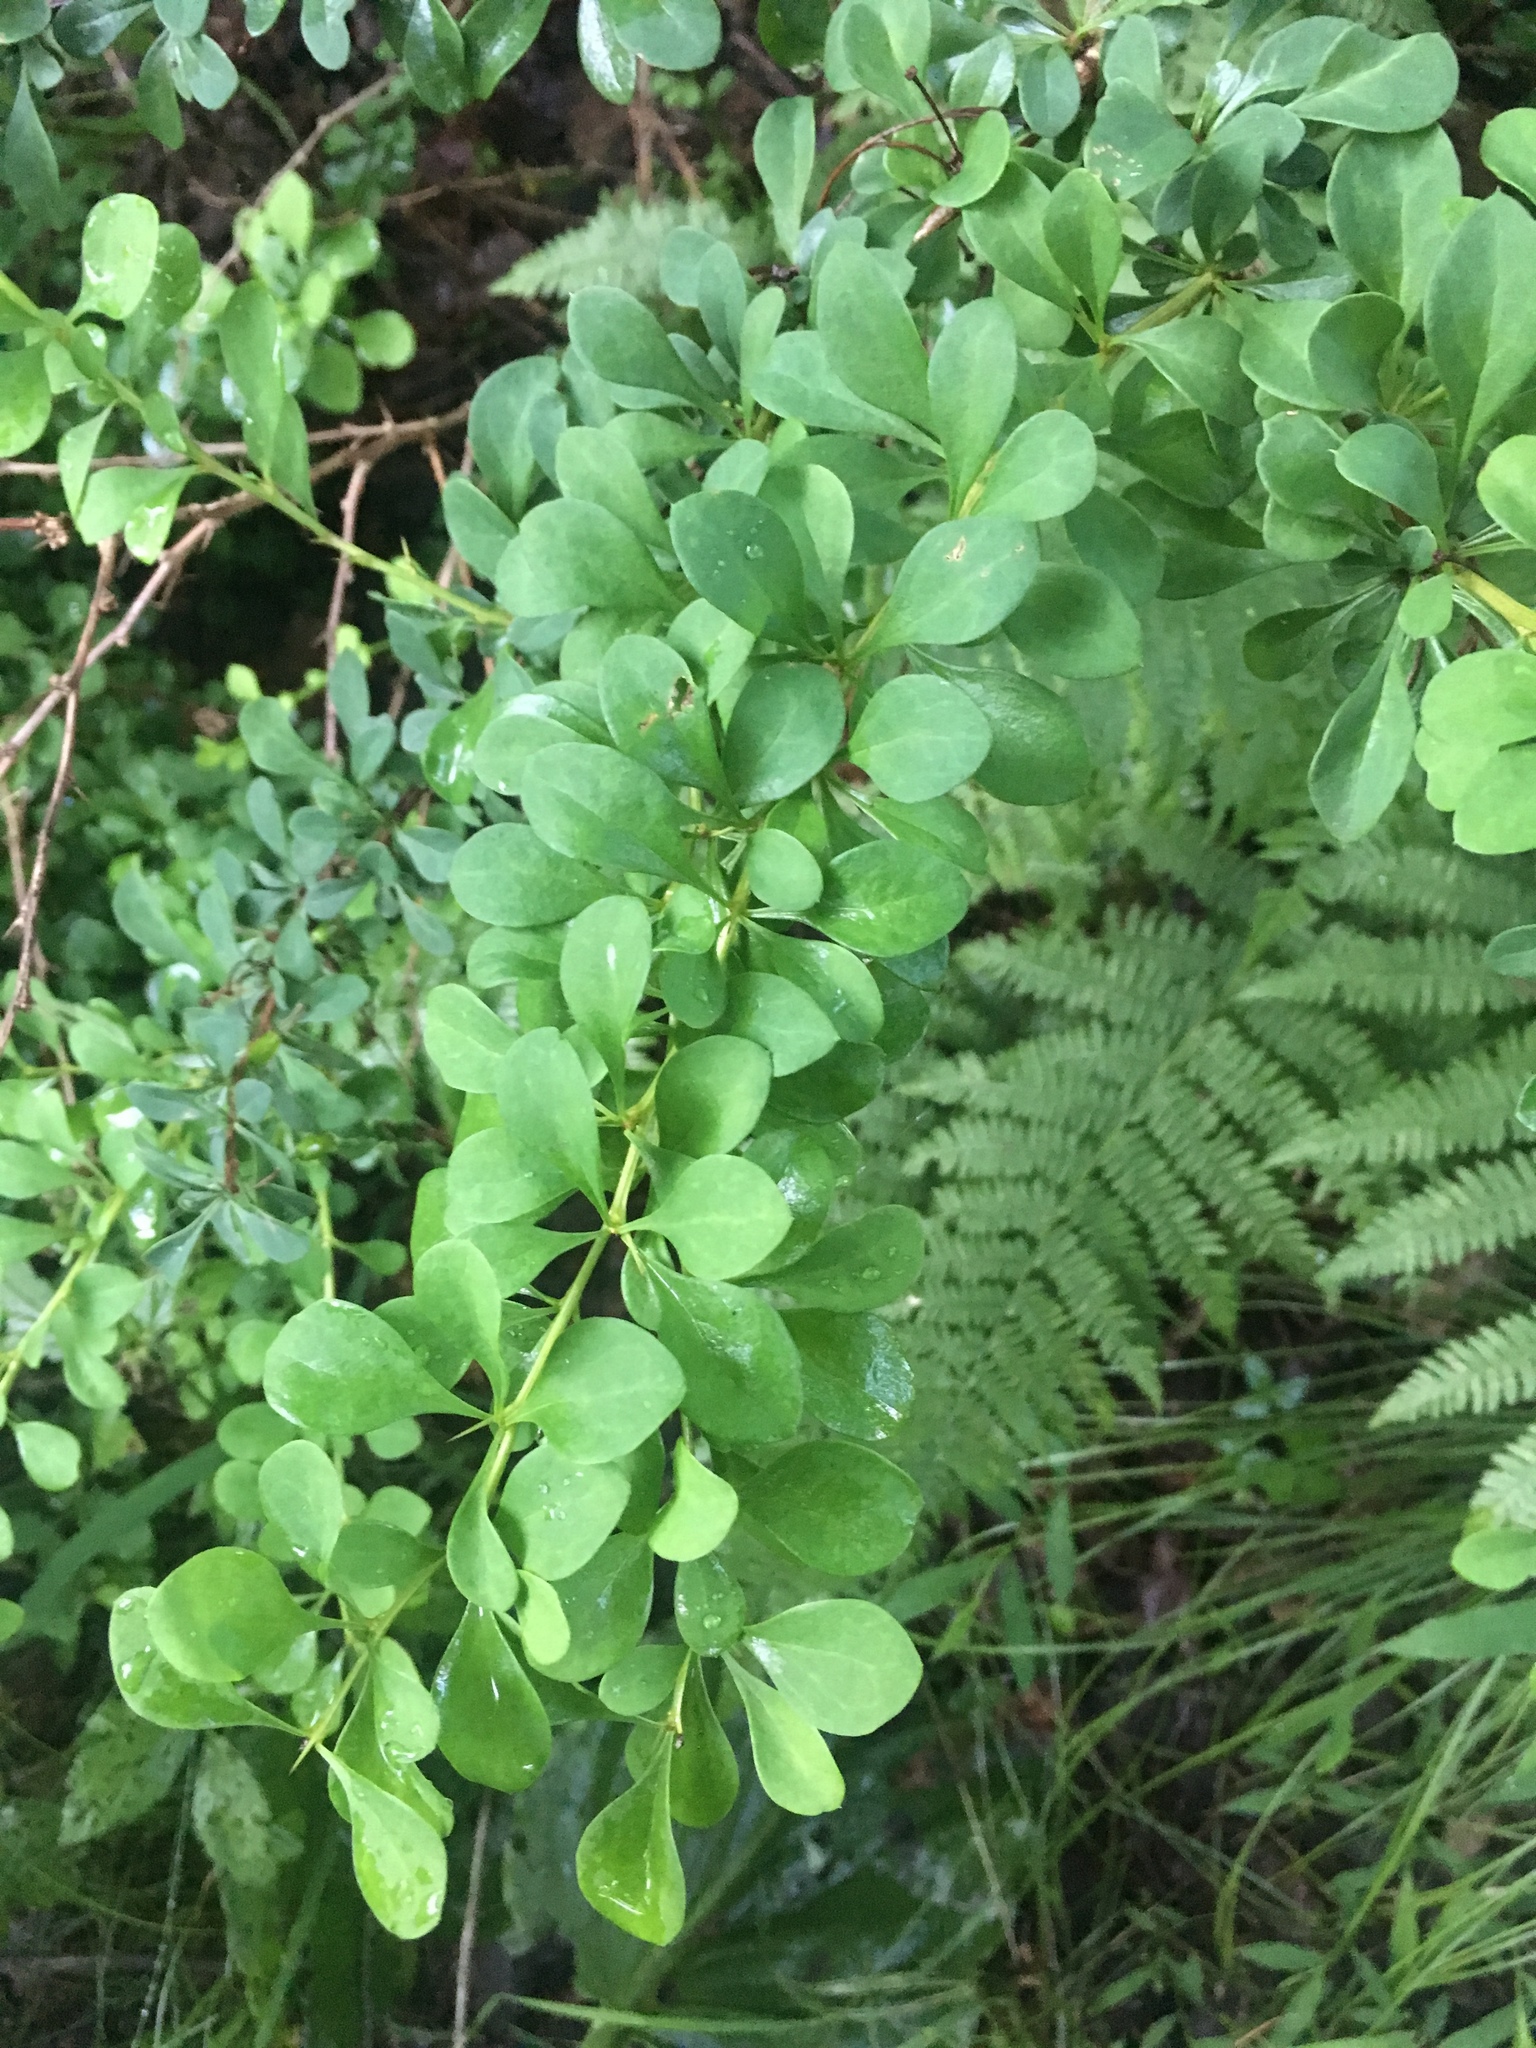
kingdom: Plantae
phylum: Tracheophyta
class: Magnoliopsida
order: Ranunculales
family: Berberidaceae
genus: Berberis
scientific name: Berberis thunbergii
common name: Japanese barberry
